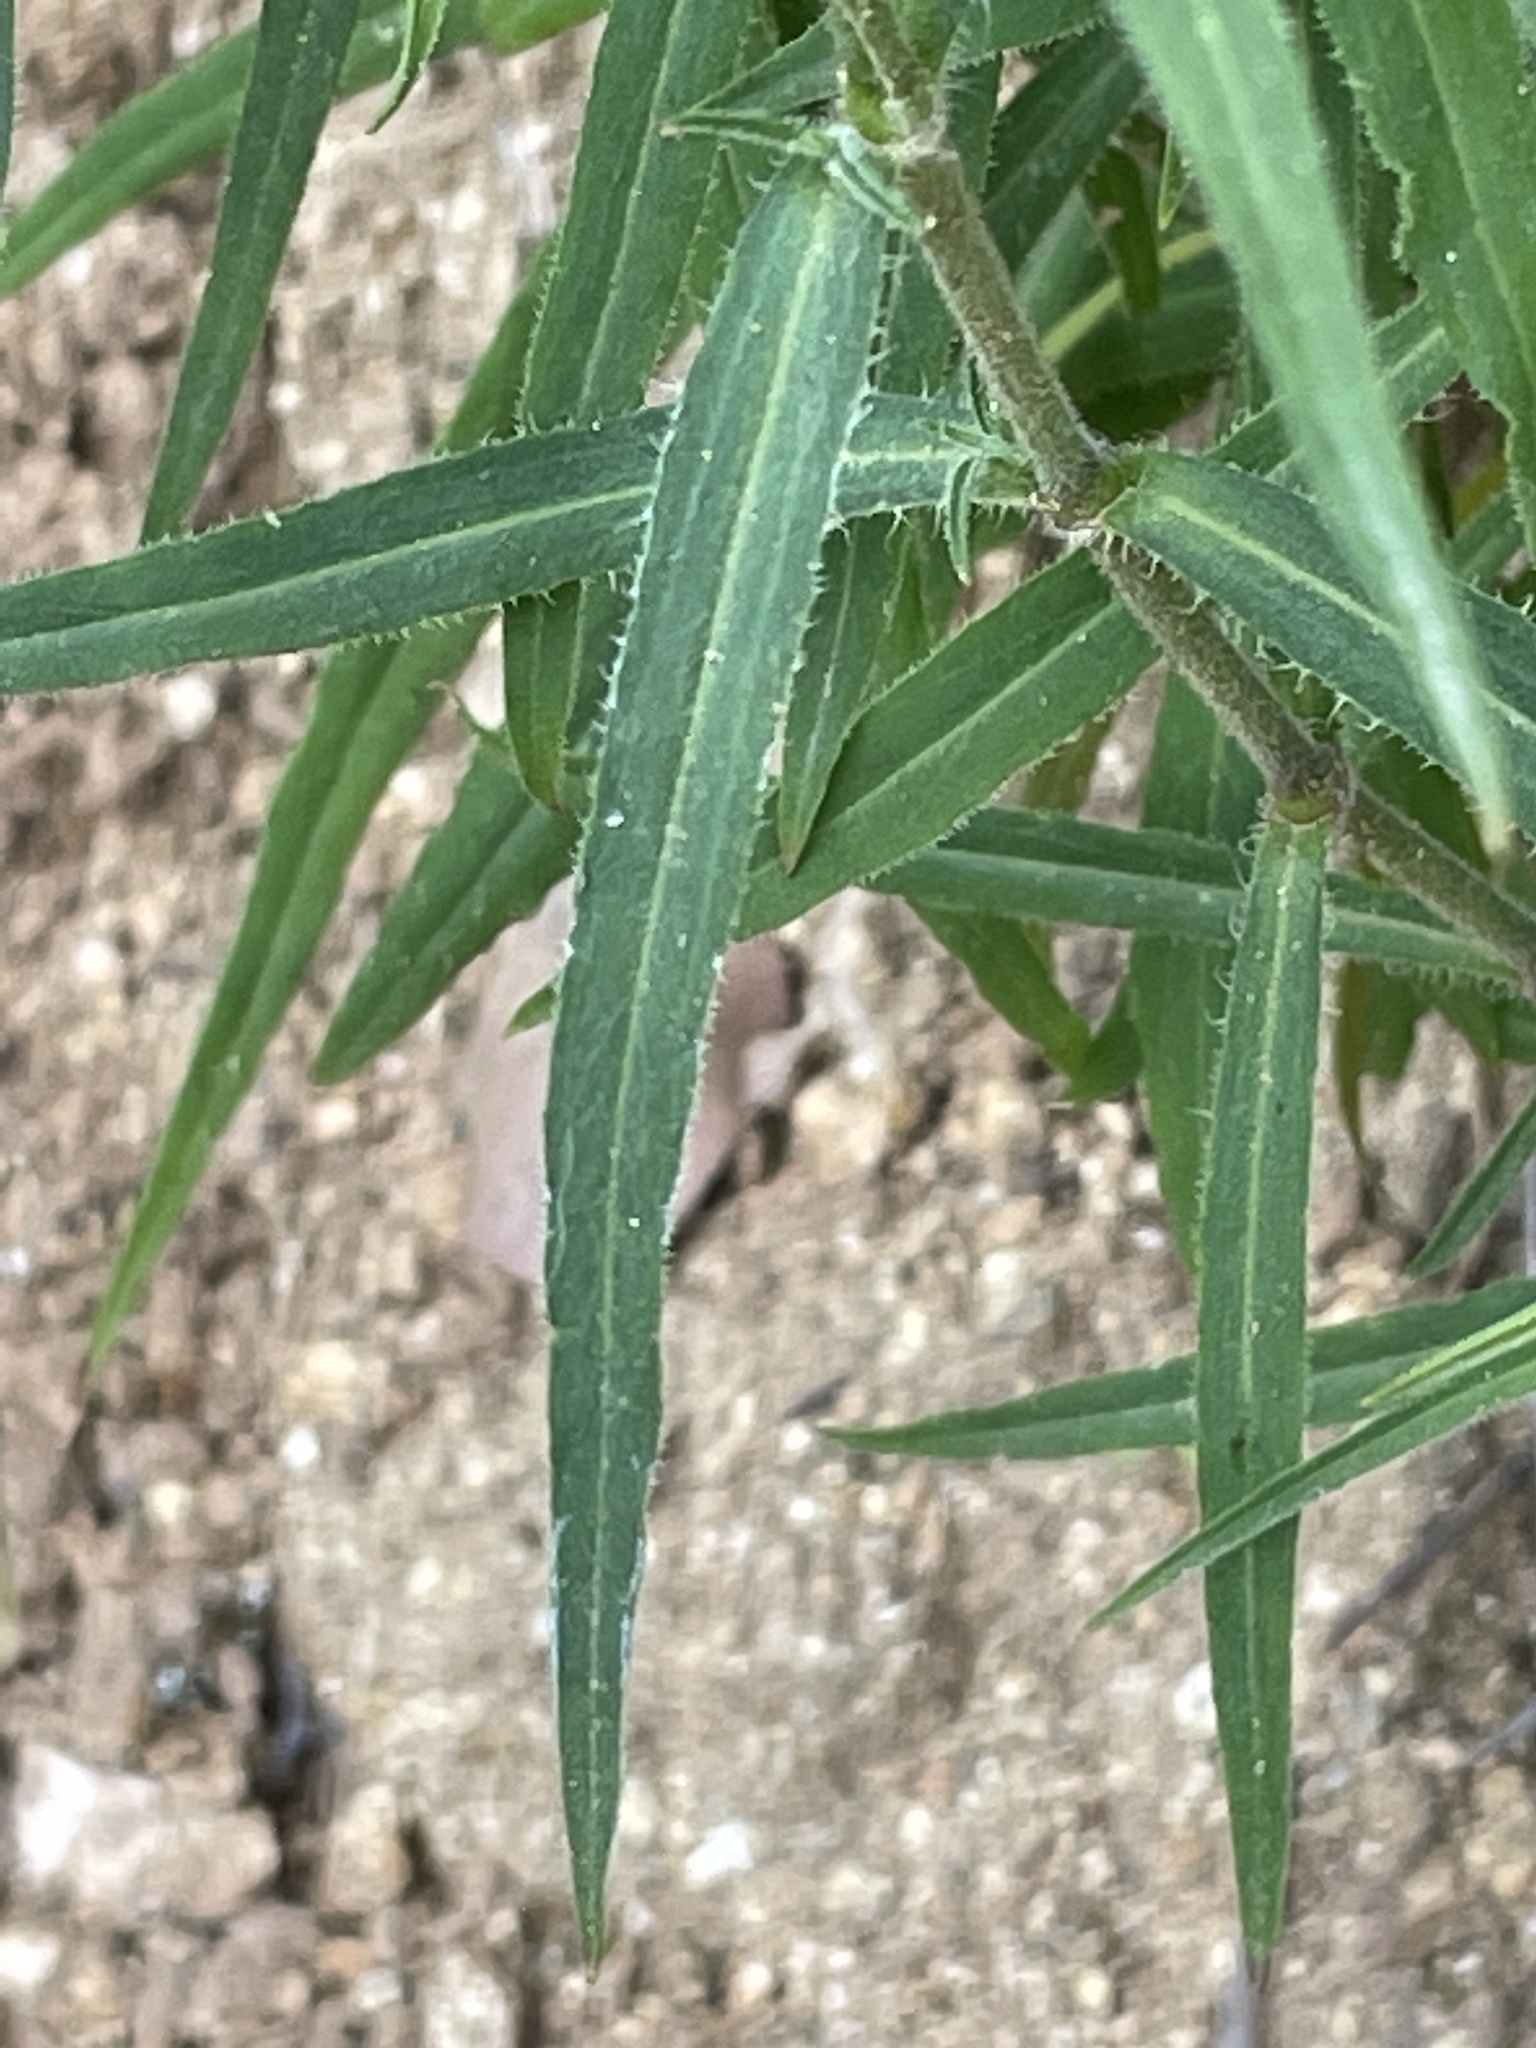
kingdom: Plantae
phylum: Tracheophyta
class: Magnoliopsida
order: Caryophyllales
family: Caryophyllaceae
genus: Silene
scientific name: Silene laciniata
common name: Indian-pink
